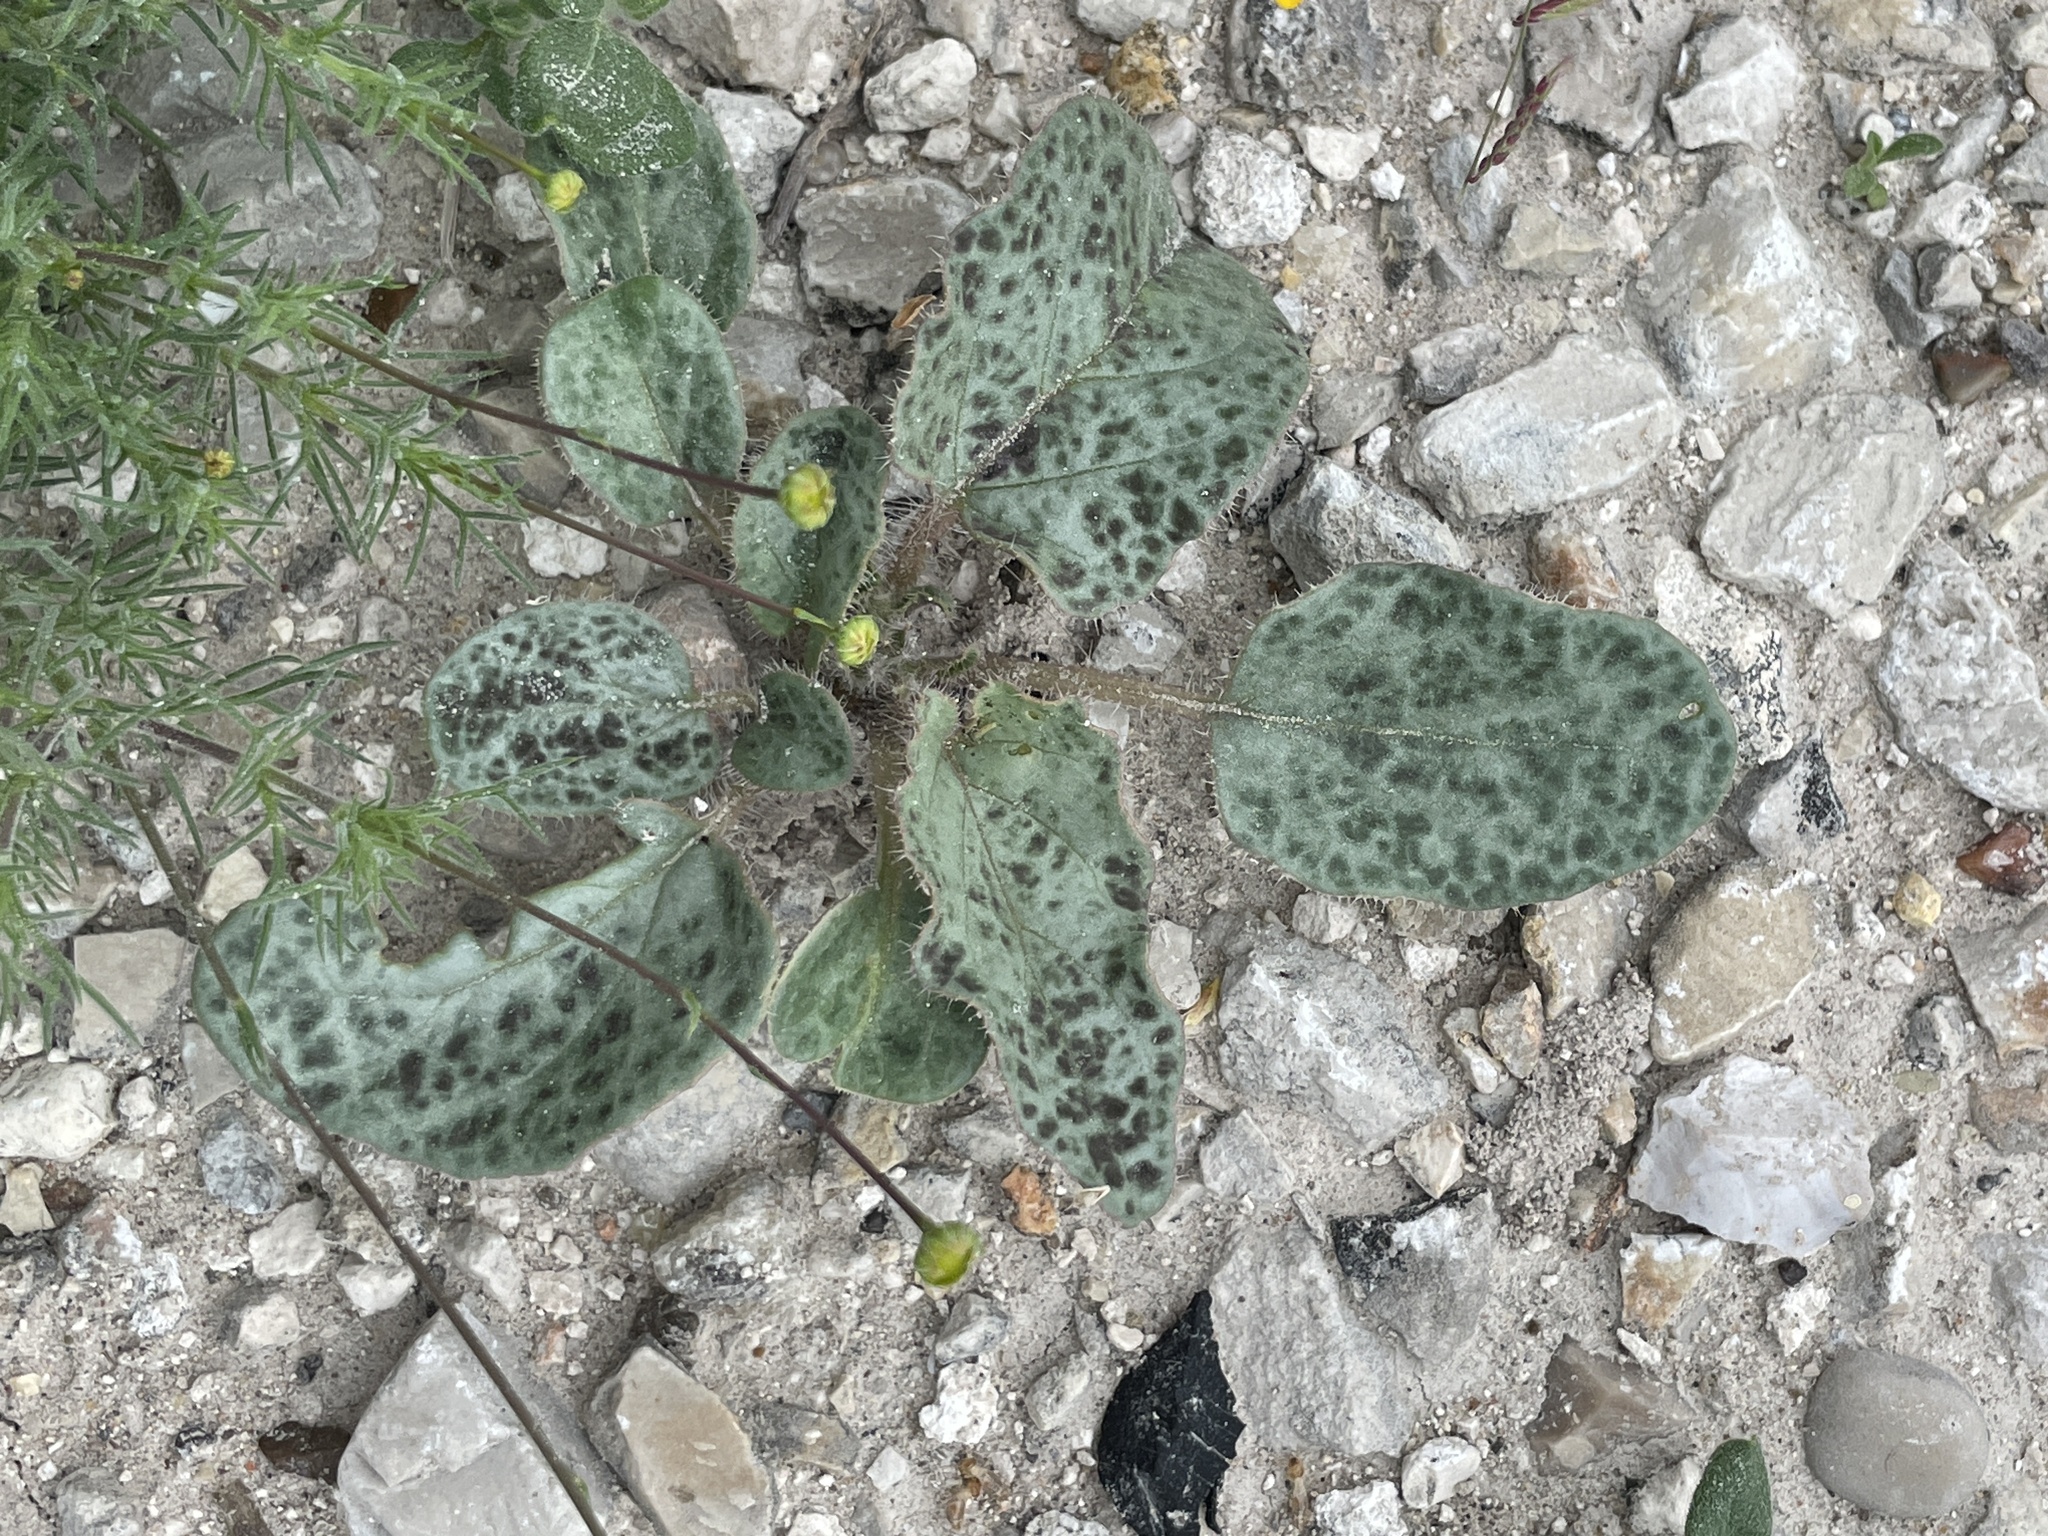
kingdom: Plantae
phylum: Tracheophyta
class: Magnoliopsida
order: Caryophyllales
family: Nyctaginaceae
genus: Nyctaginia
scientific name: Nyctaginia capitata
